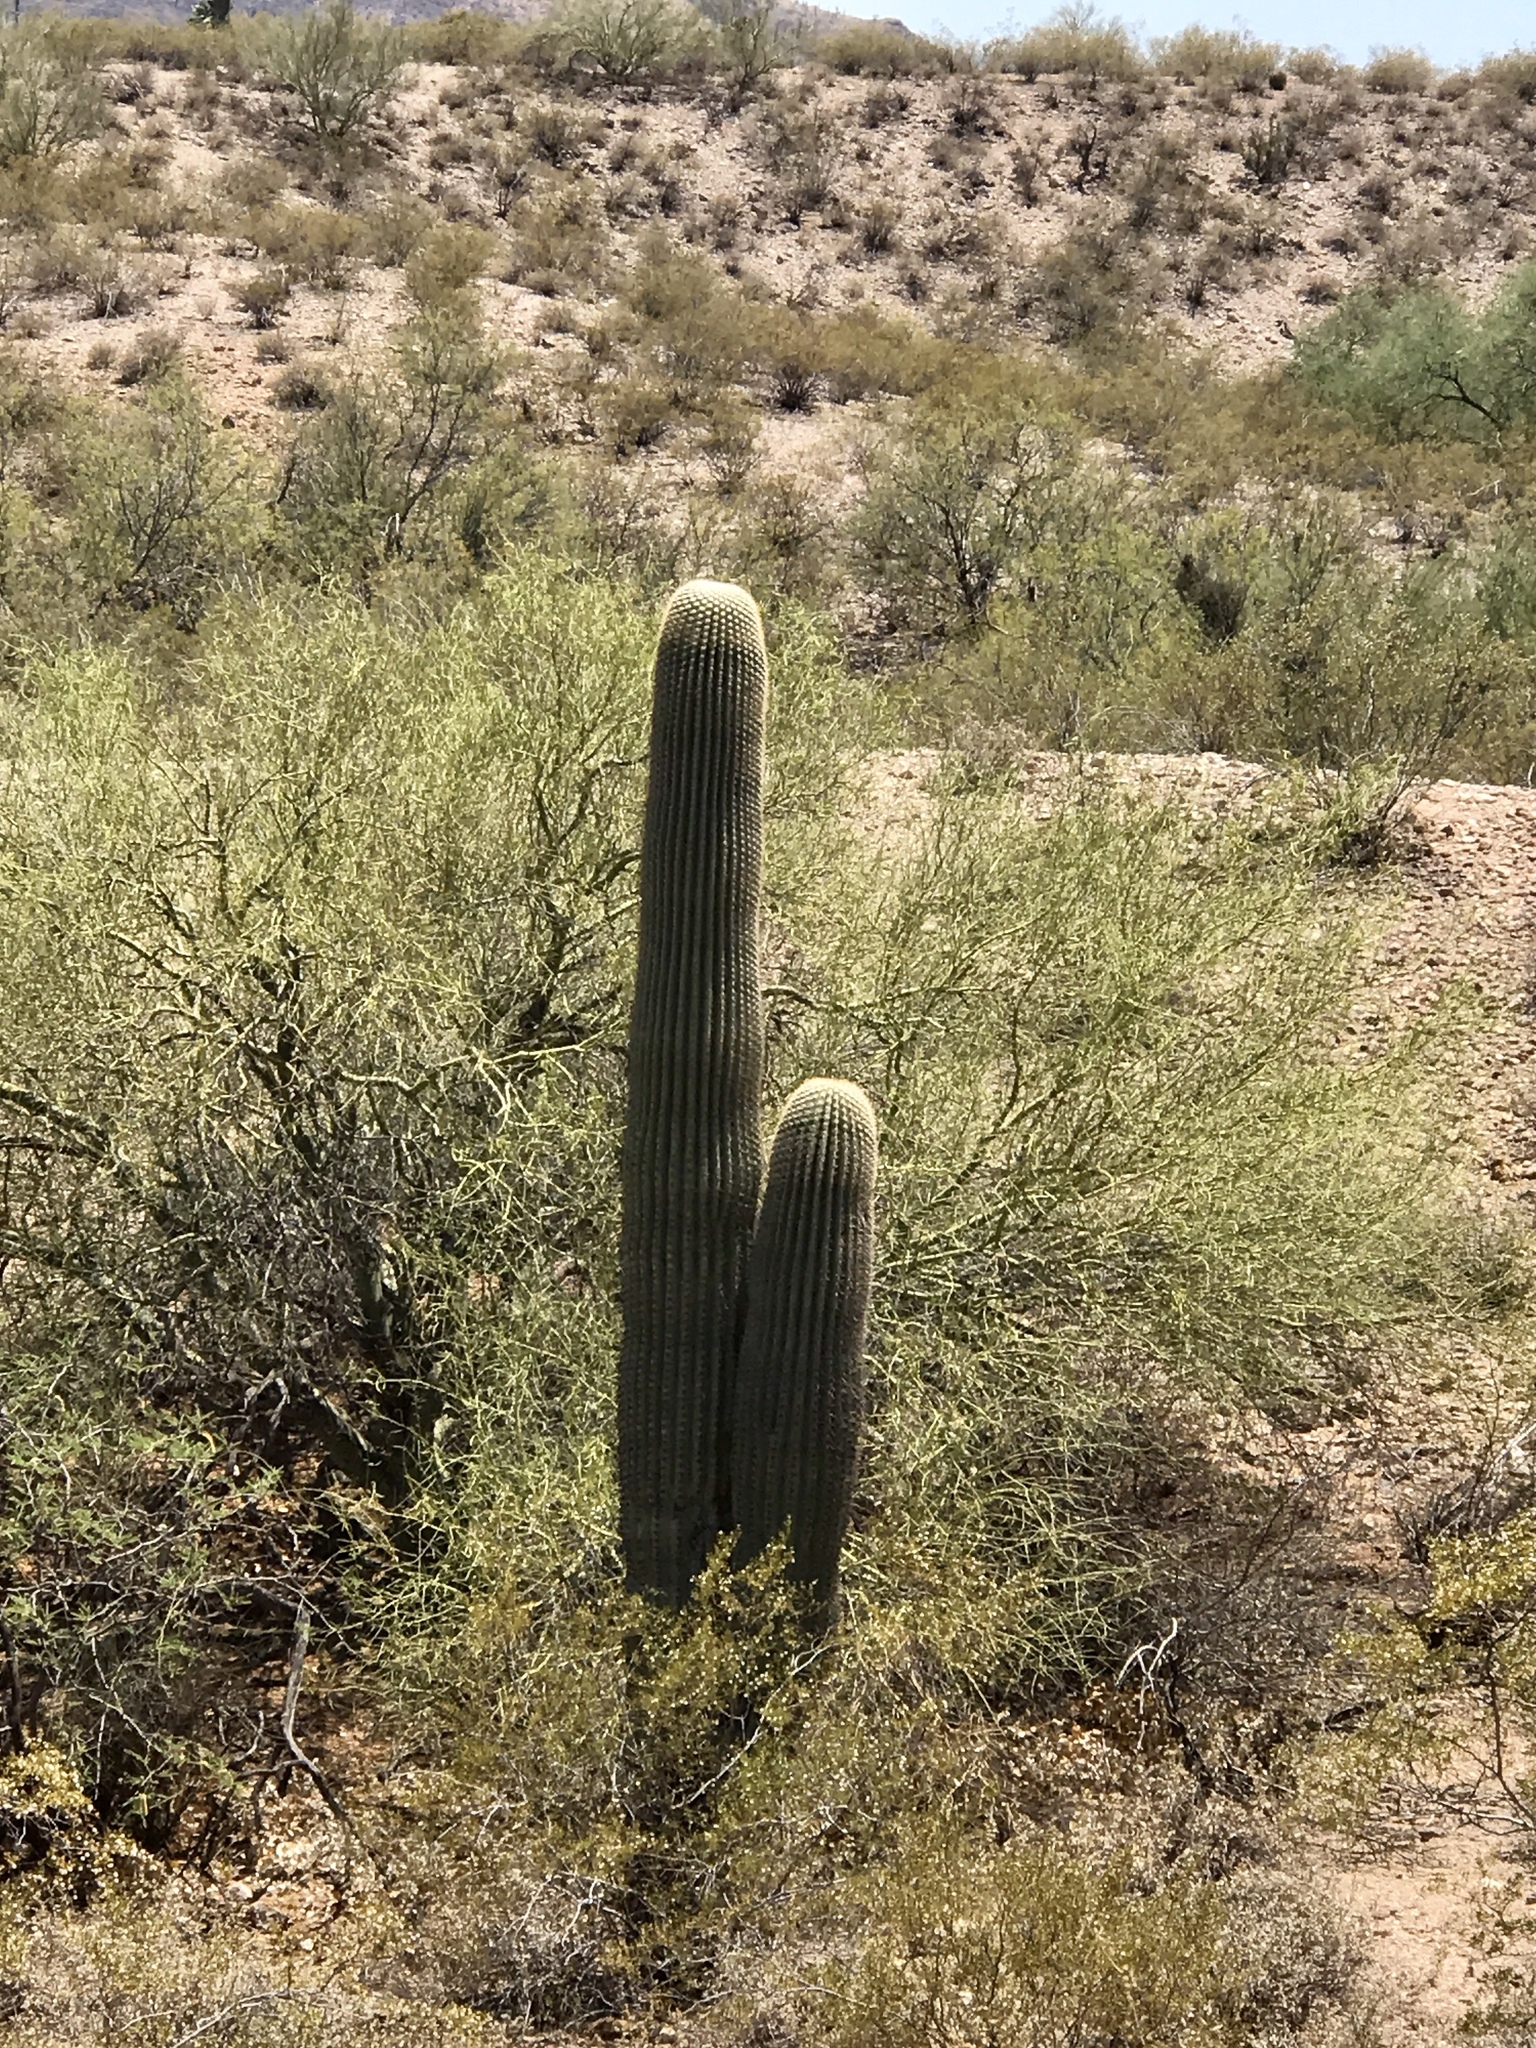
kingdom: Plantae
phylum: Tracheophyta
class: Magnoliopsida
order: Caryophyllales
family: Cactaceae
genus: Carnegiea
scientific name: Carnegiea gigantea
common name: Saguaro
